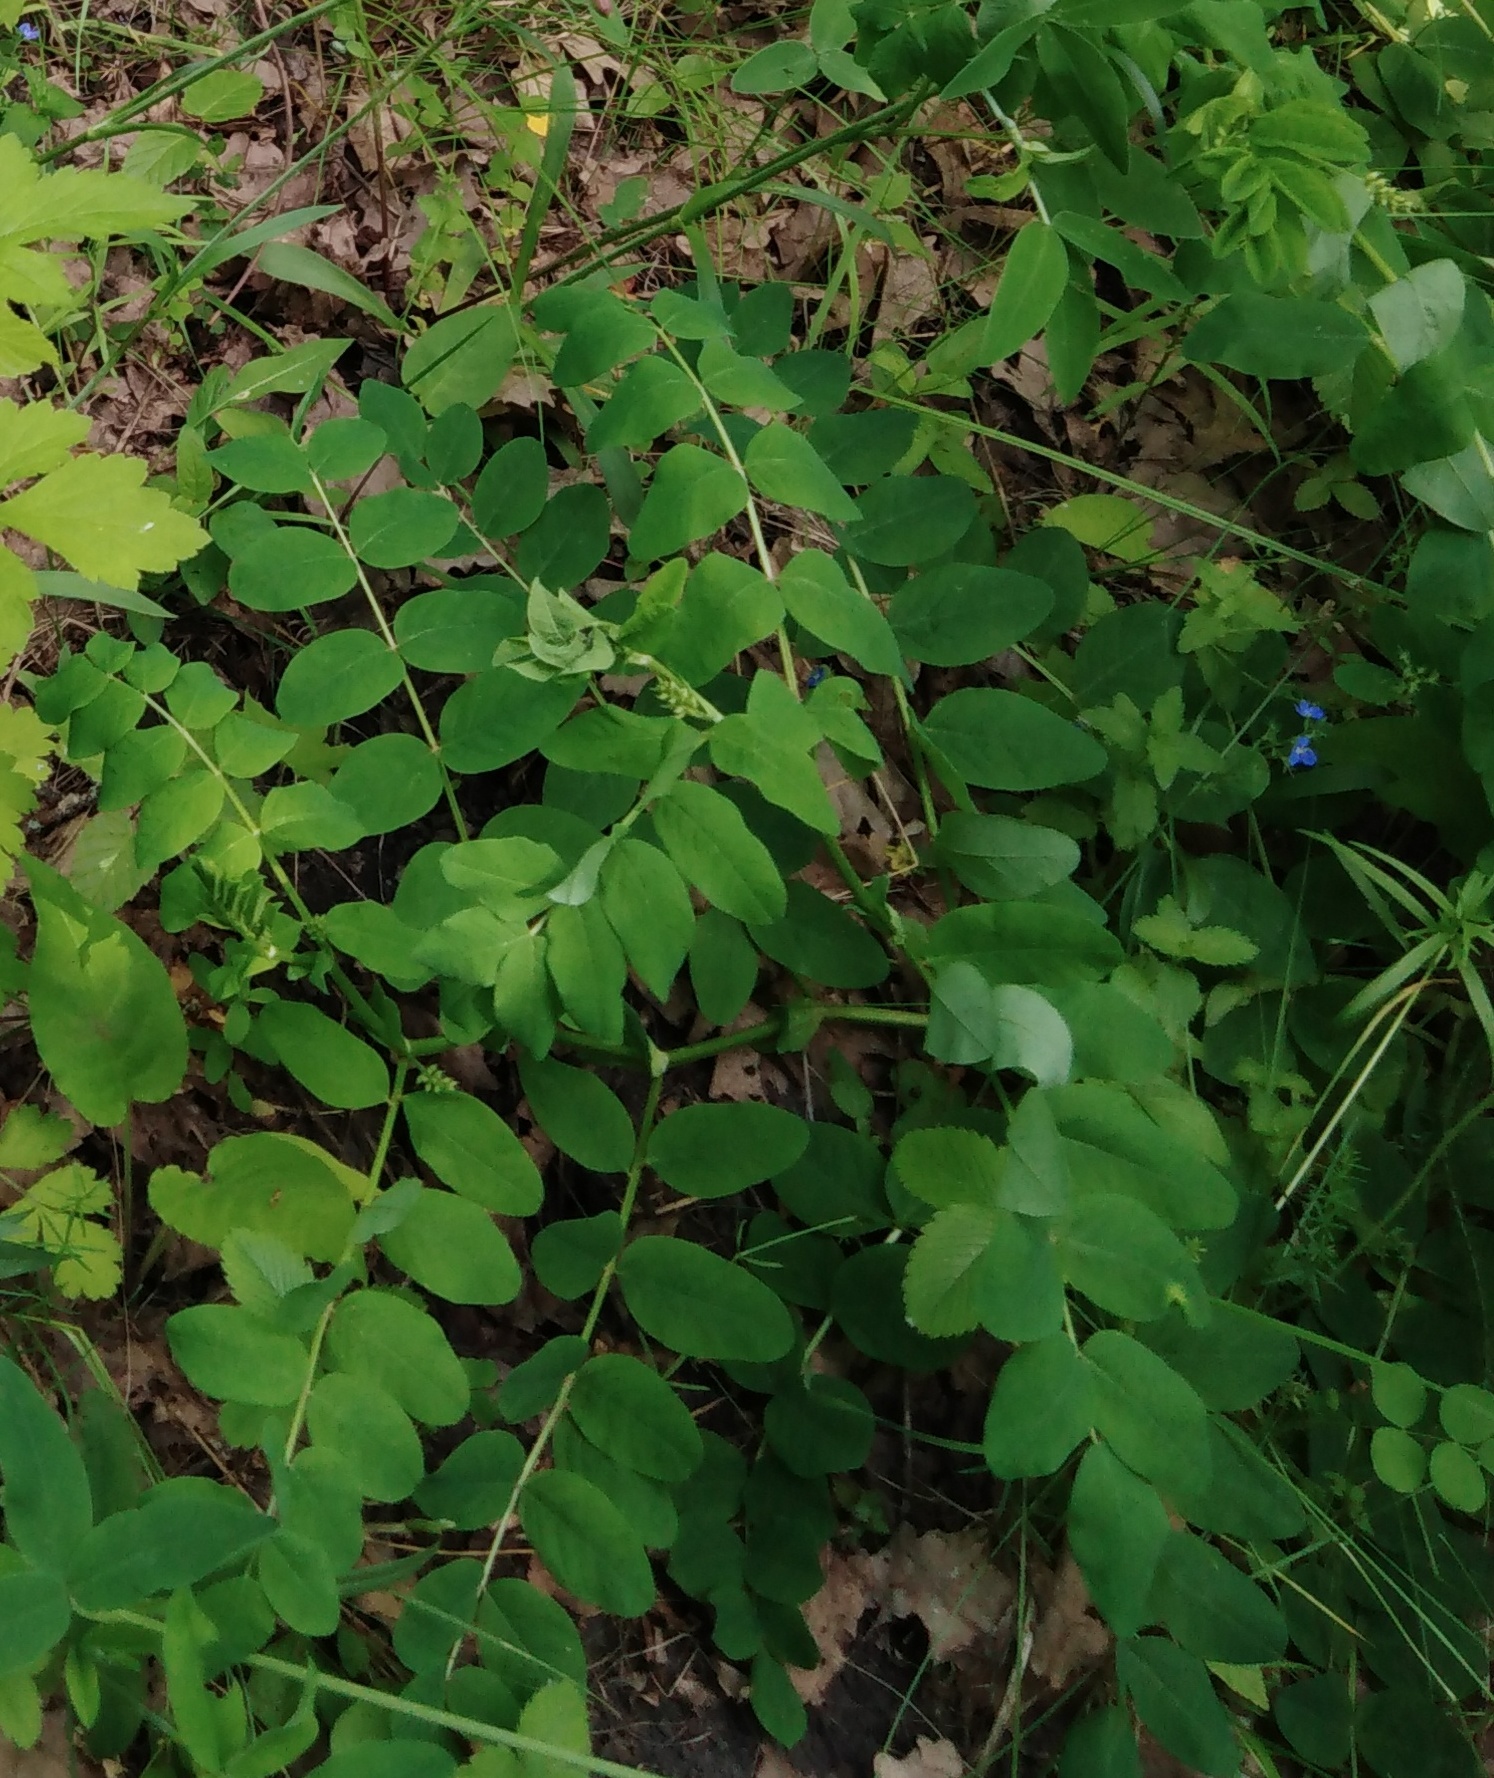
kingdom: Plantae
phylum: Tracheophyta
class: Magnoliopsida
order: Fabales
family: Fabaceae
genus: Astragalus
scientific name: Astragalus glycyphyllos
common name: Wild liquorice
